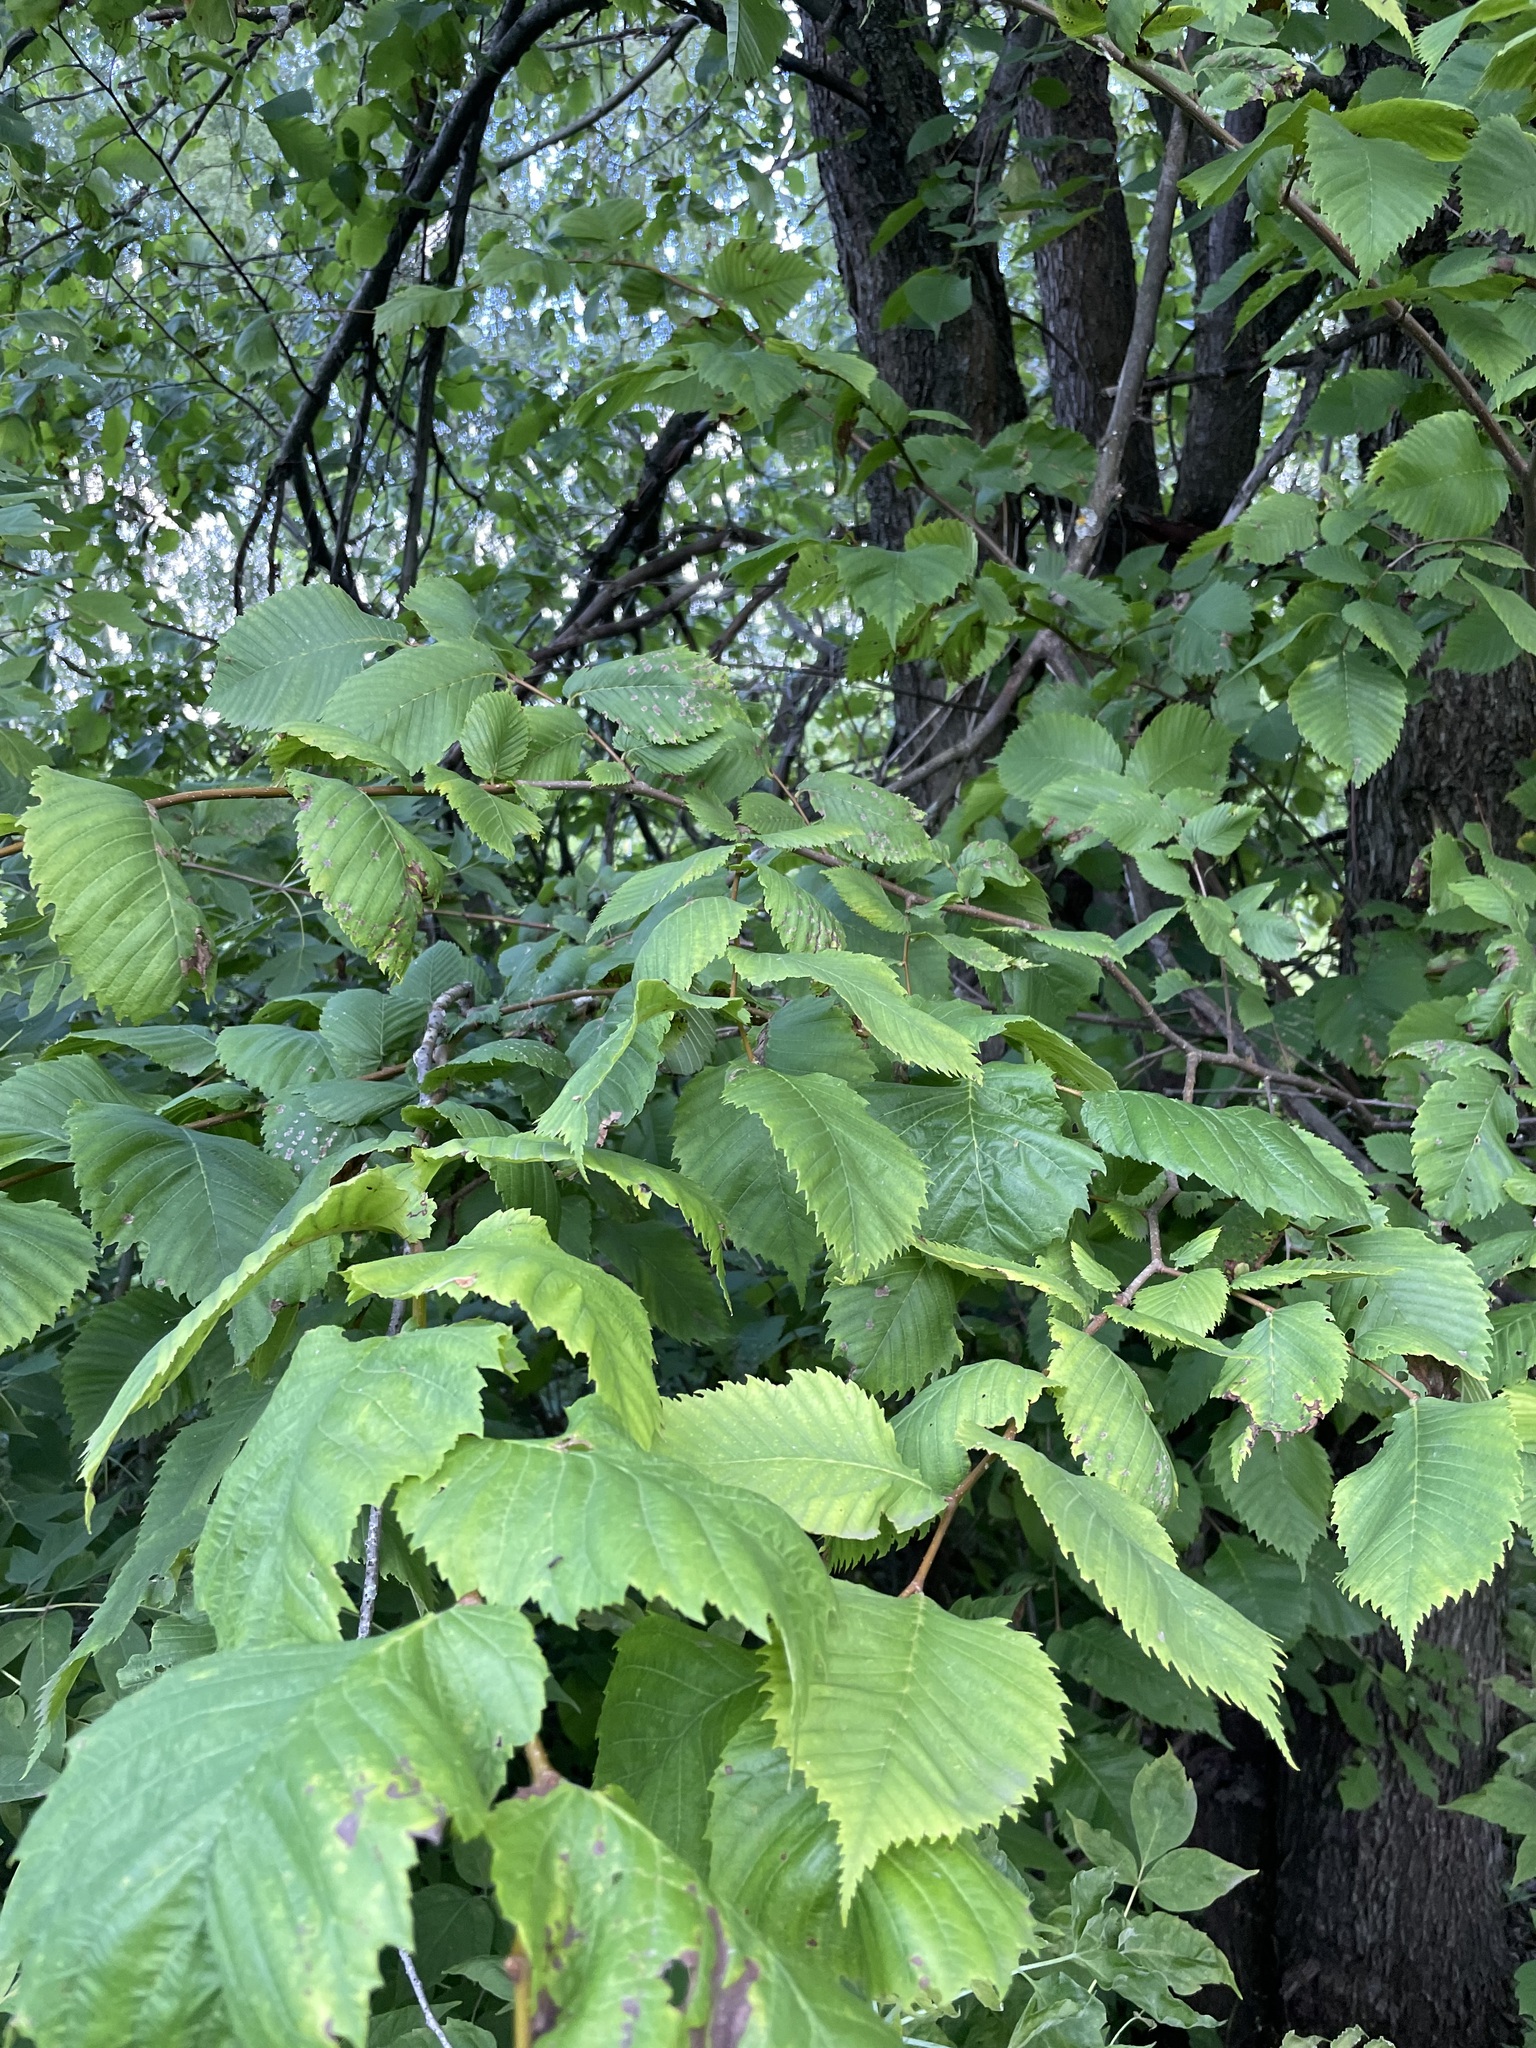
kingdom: Plantae
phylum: Tracheophyta
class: Magnoliopsida
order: Rosales
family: Ulmaceae
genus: Ulmus
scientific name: Ulmus laevis
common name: European white-elm
